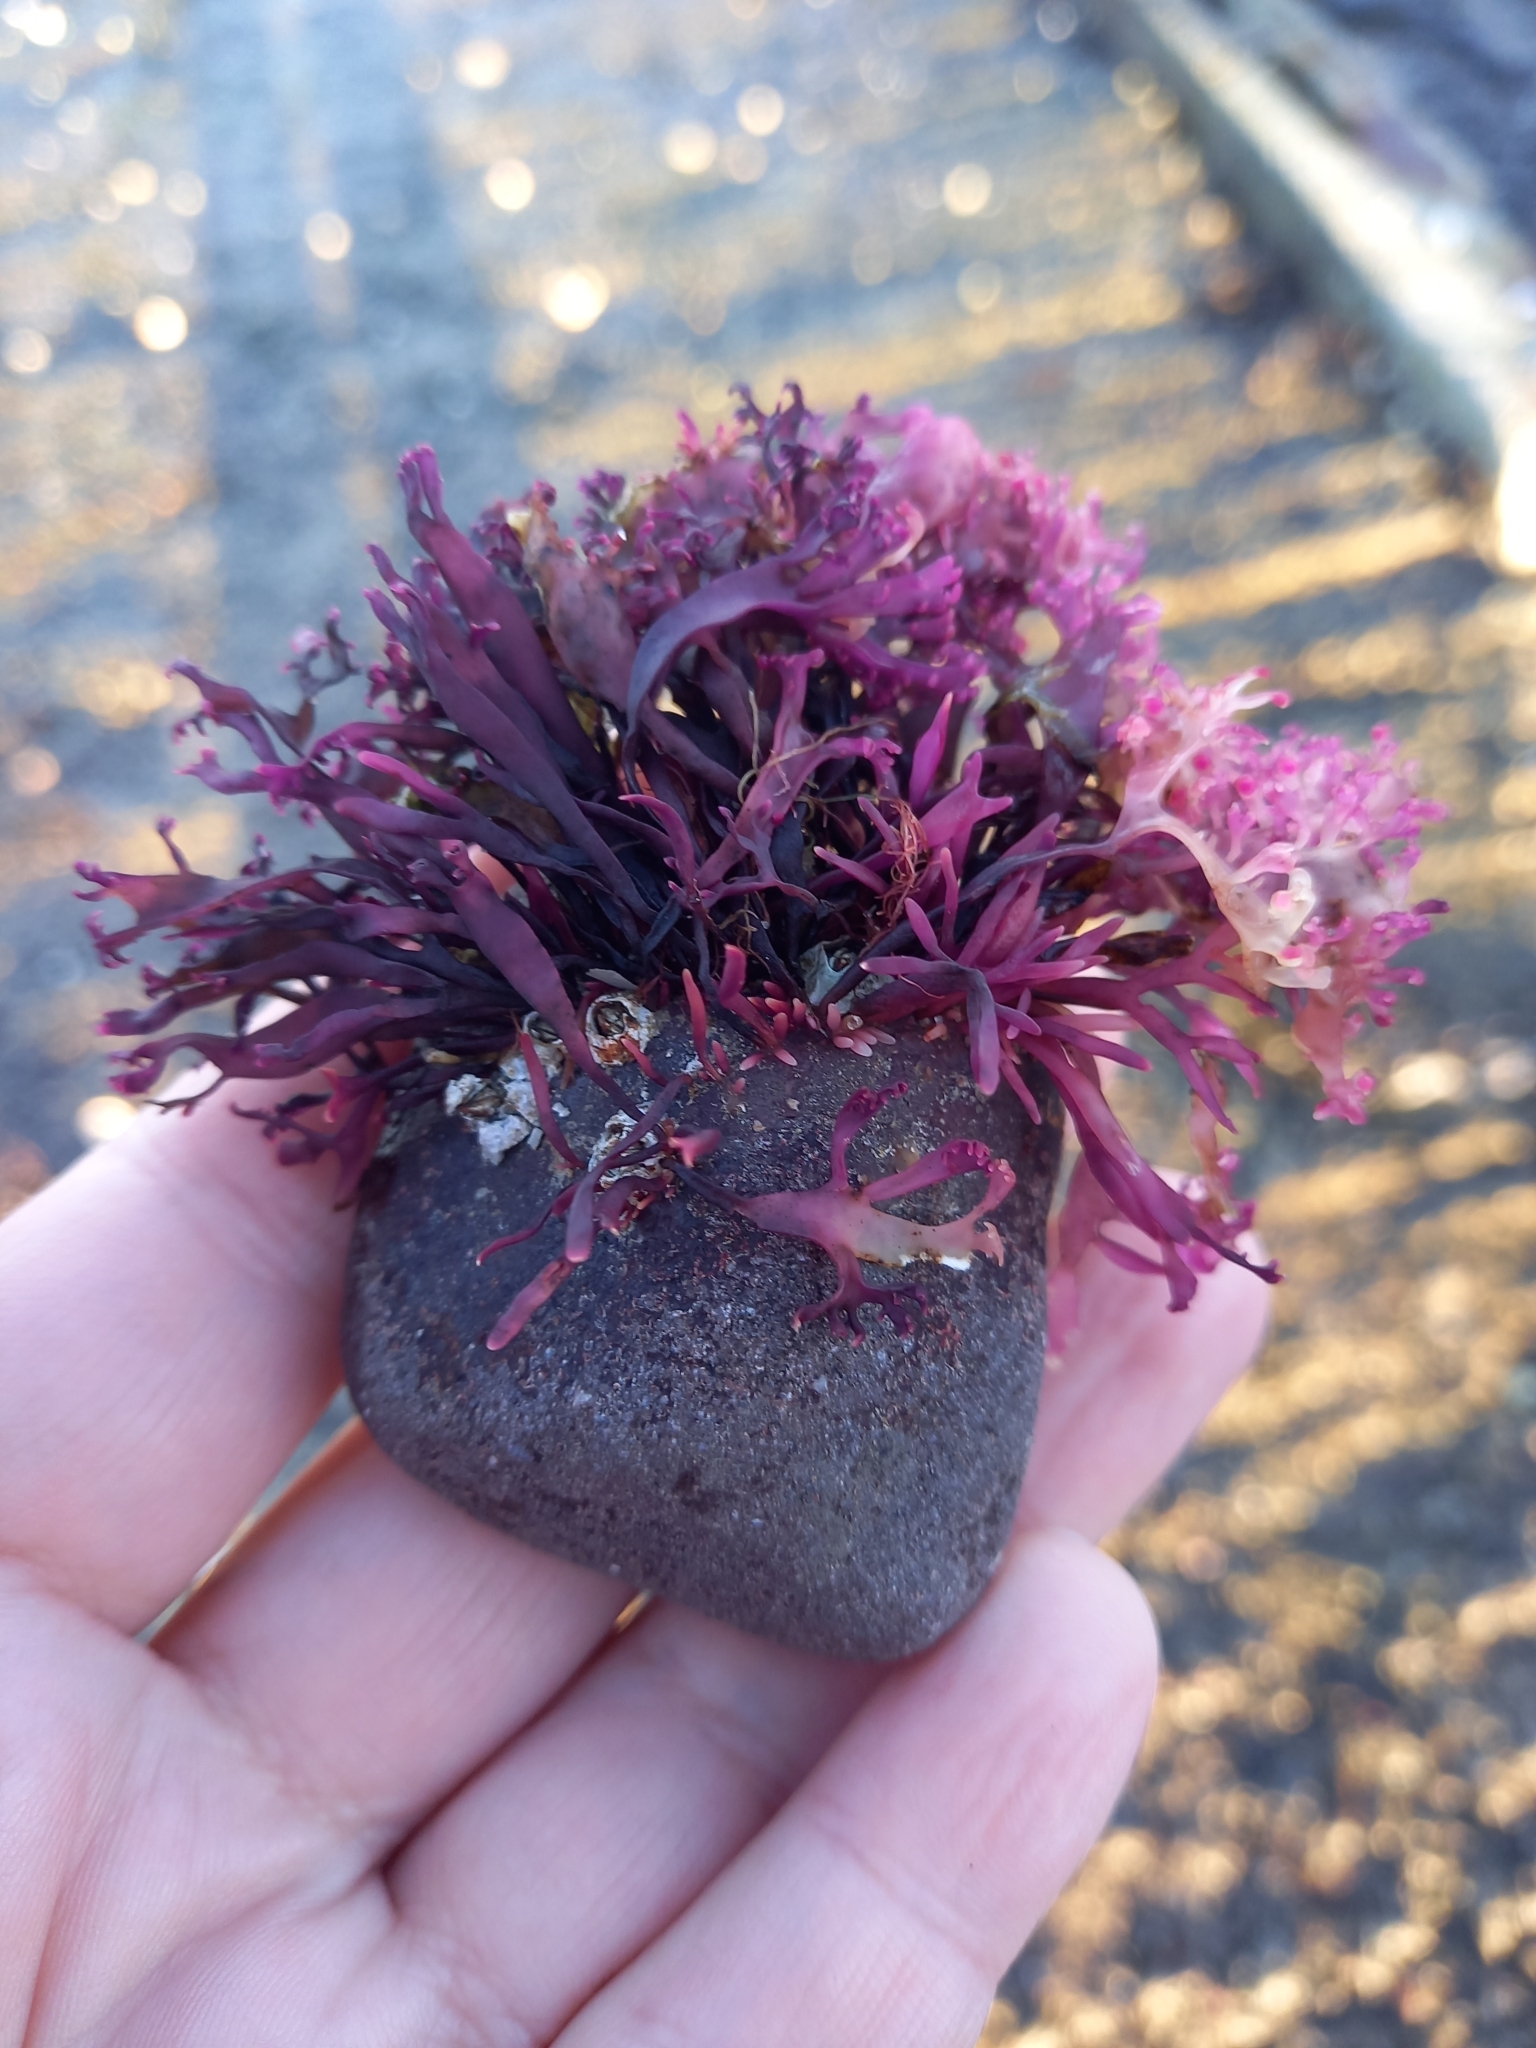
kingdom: Plantae
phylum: Rhodophyta
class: Florideophyceae
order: Gigartinales
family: Gigartinaceae
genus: Chondrus
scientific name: Chondrus crispus
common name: Carrageen
